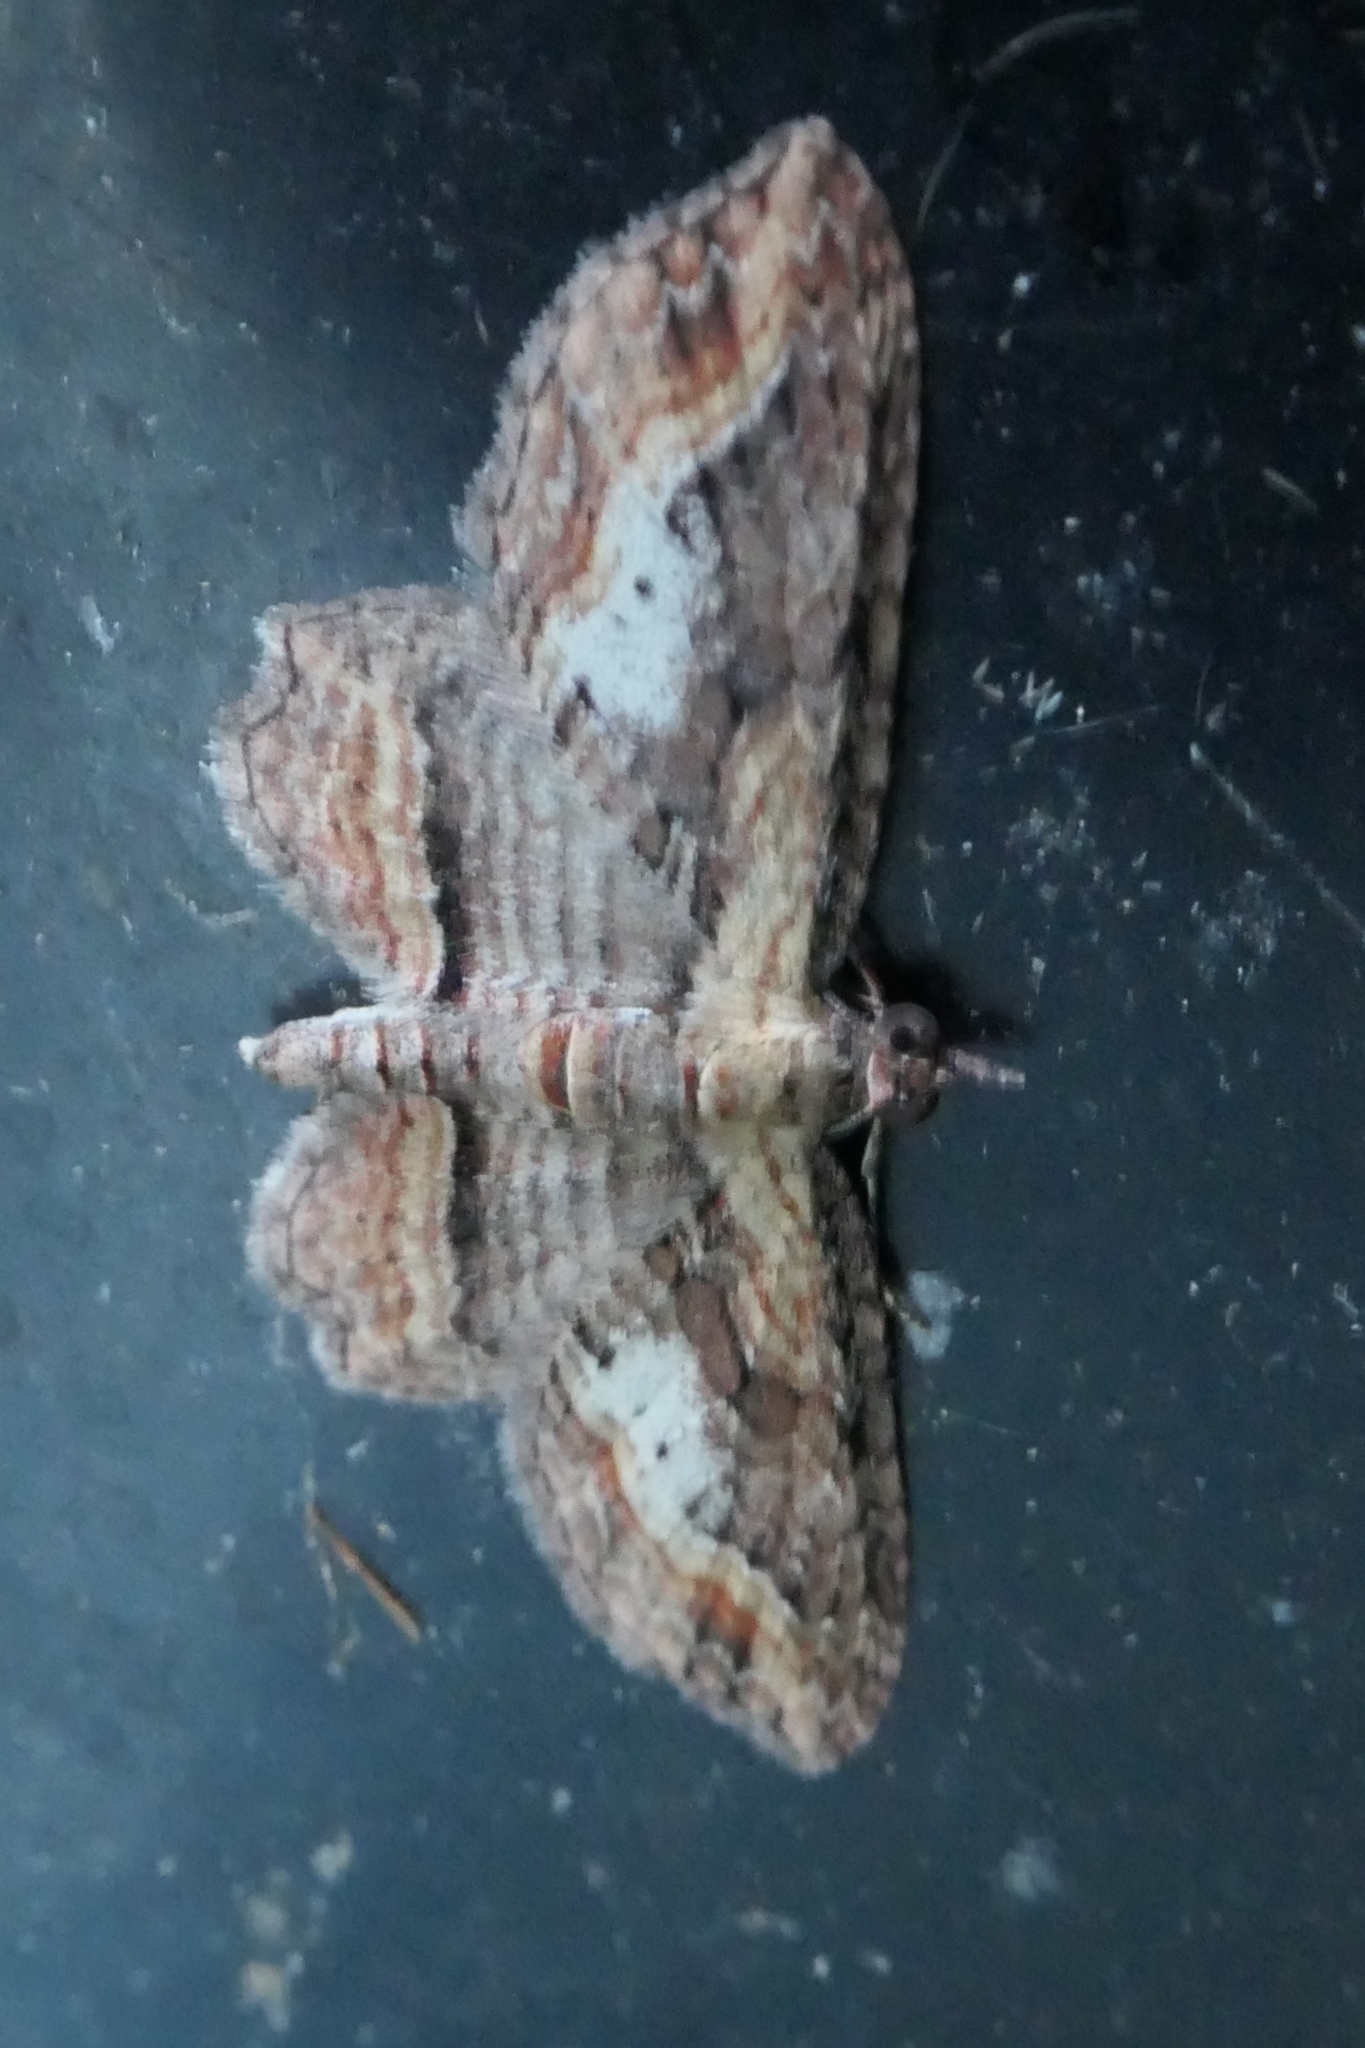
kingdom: Animalia
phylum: Arthropoda
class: Insecta
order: Lepidoptera
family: Geometridae
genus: Chloroclystis
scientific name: Chloroclystis filata
